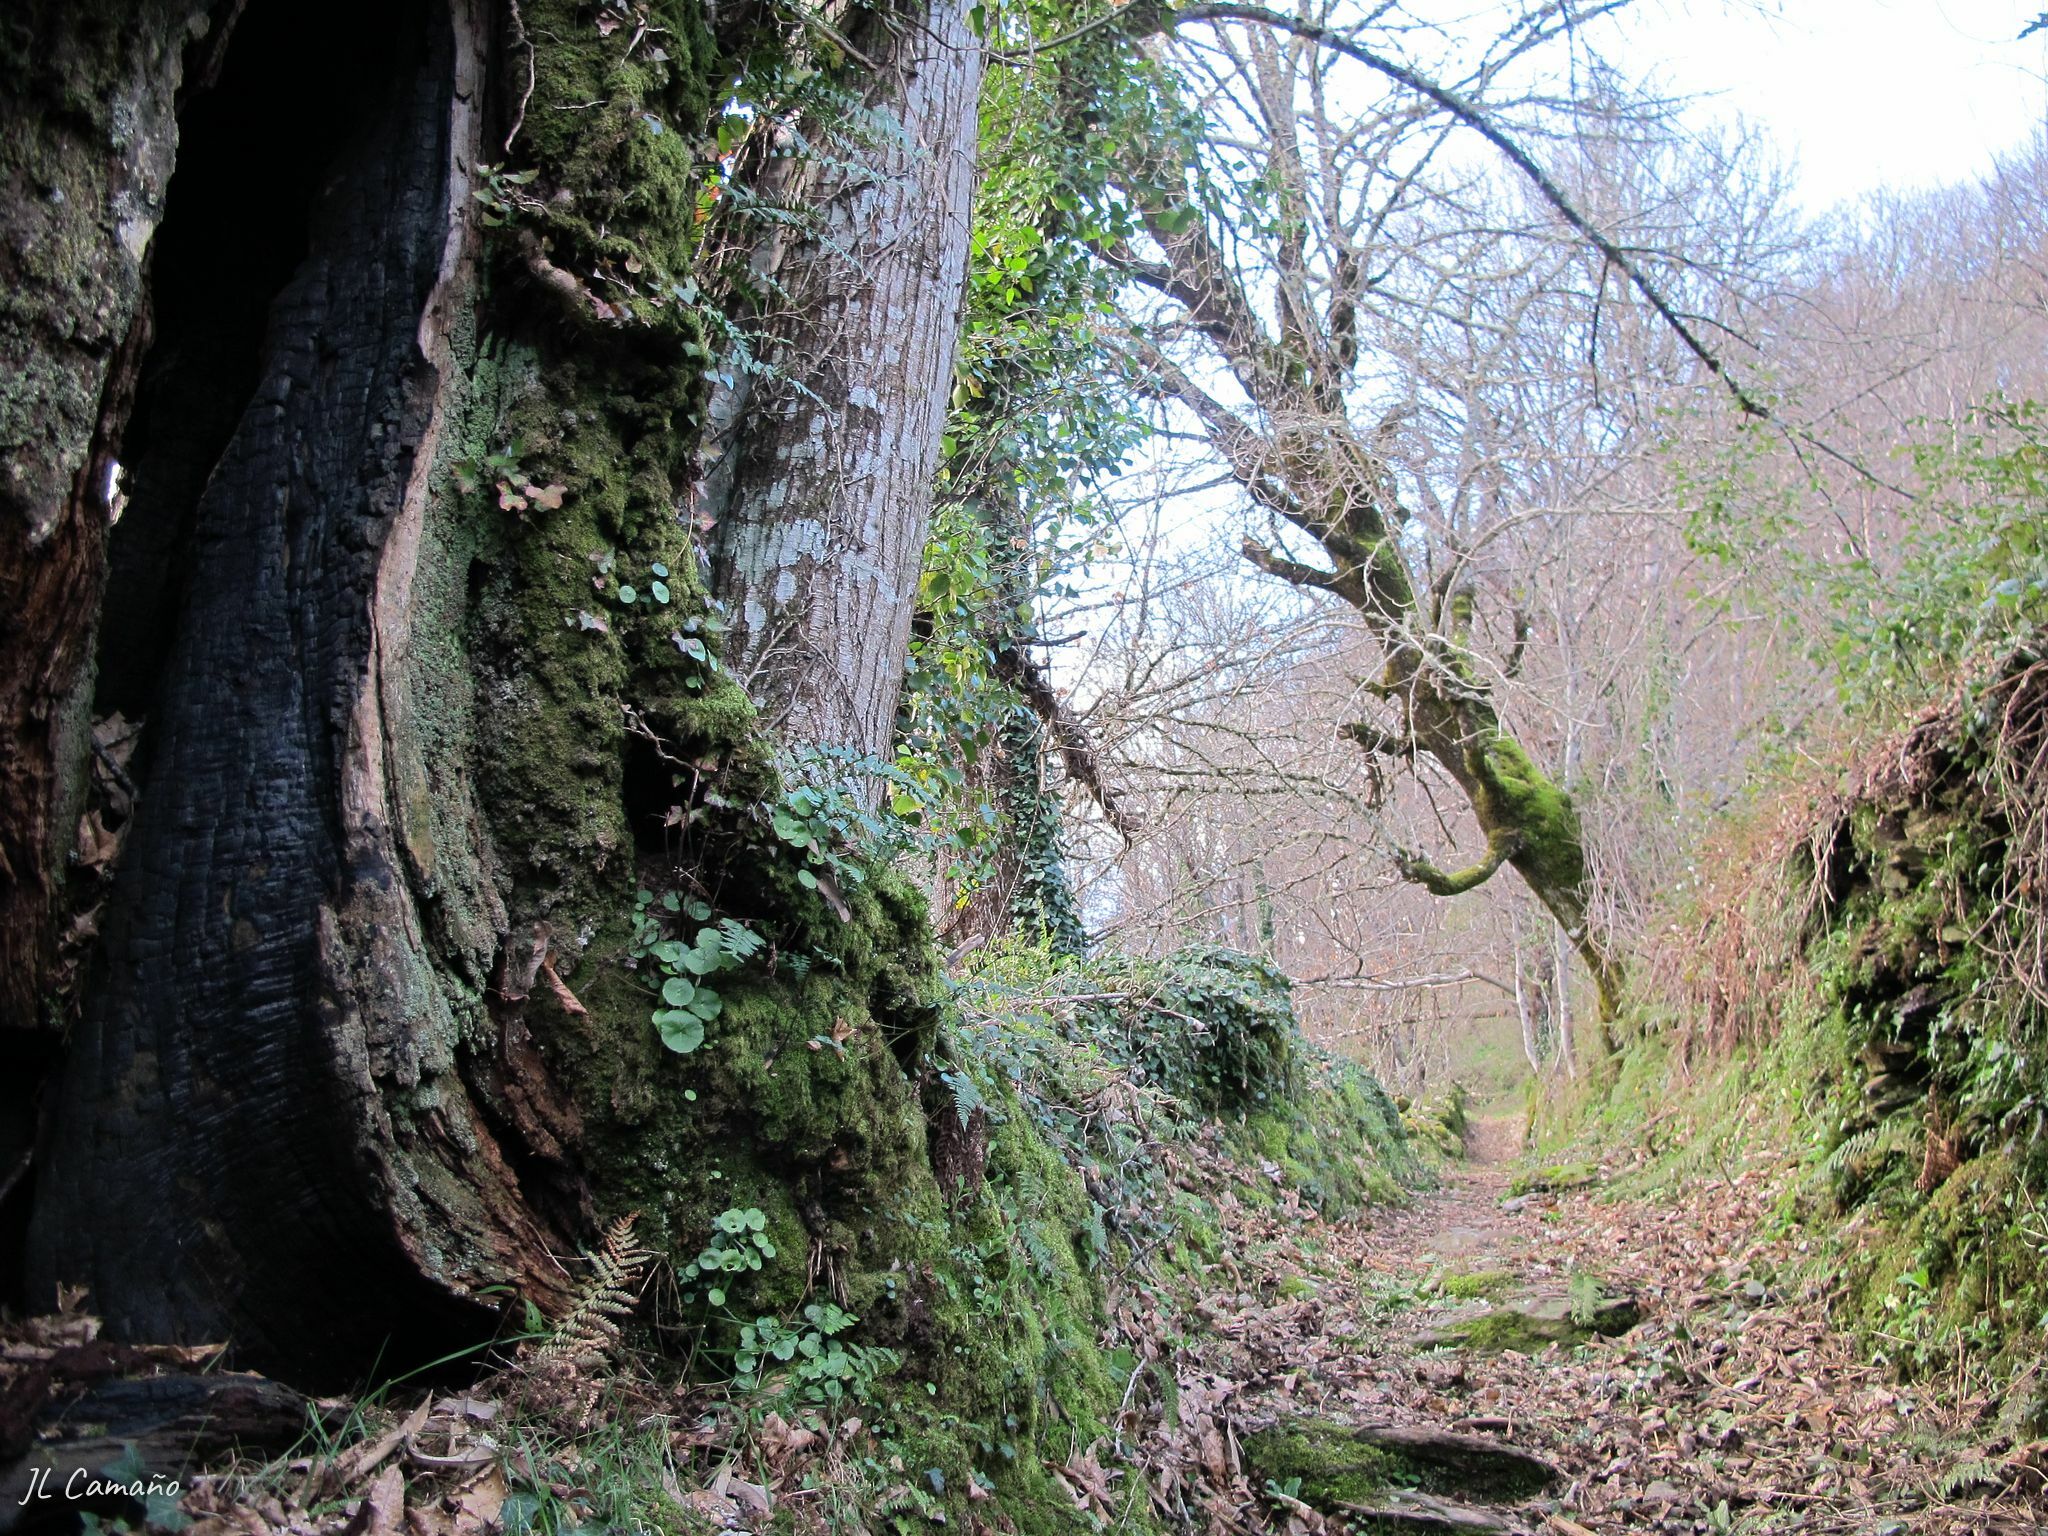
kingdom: Plantae
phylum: Bryophyta
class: Bryopsida
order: Hypnales
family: Brachytheciaceae
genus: Homalothecium
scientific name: Homalothecium sericeum
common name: Silky wall feather-moss
